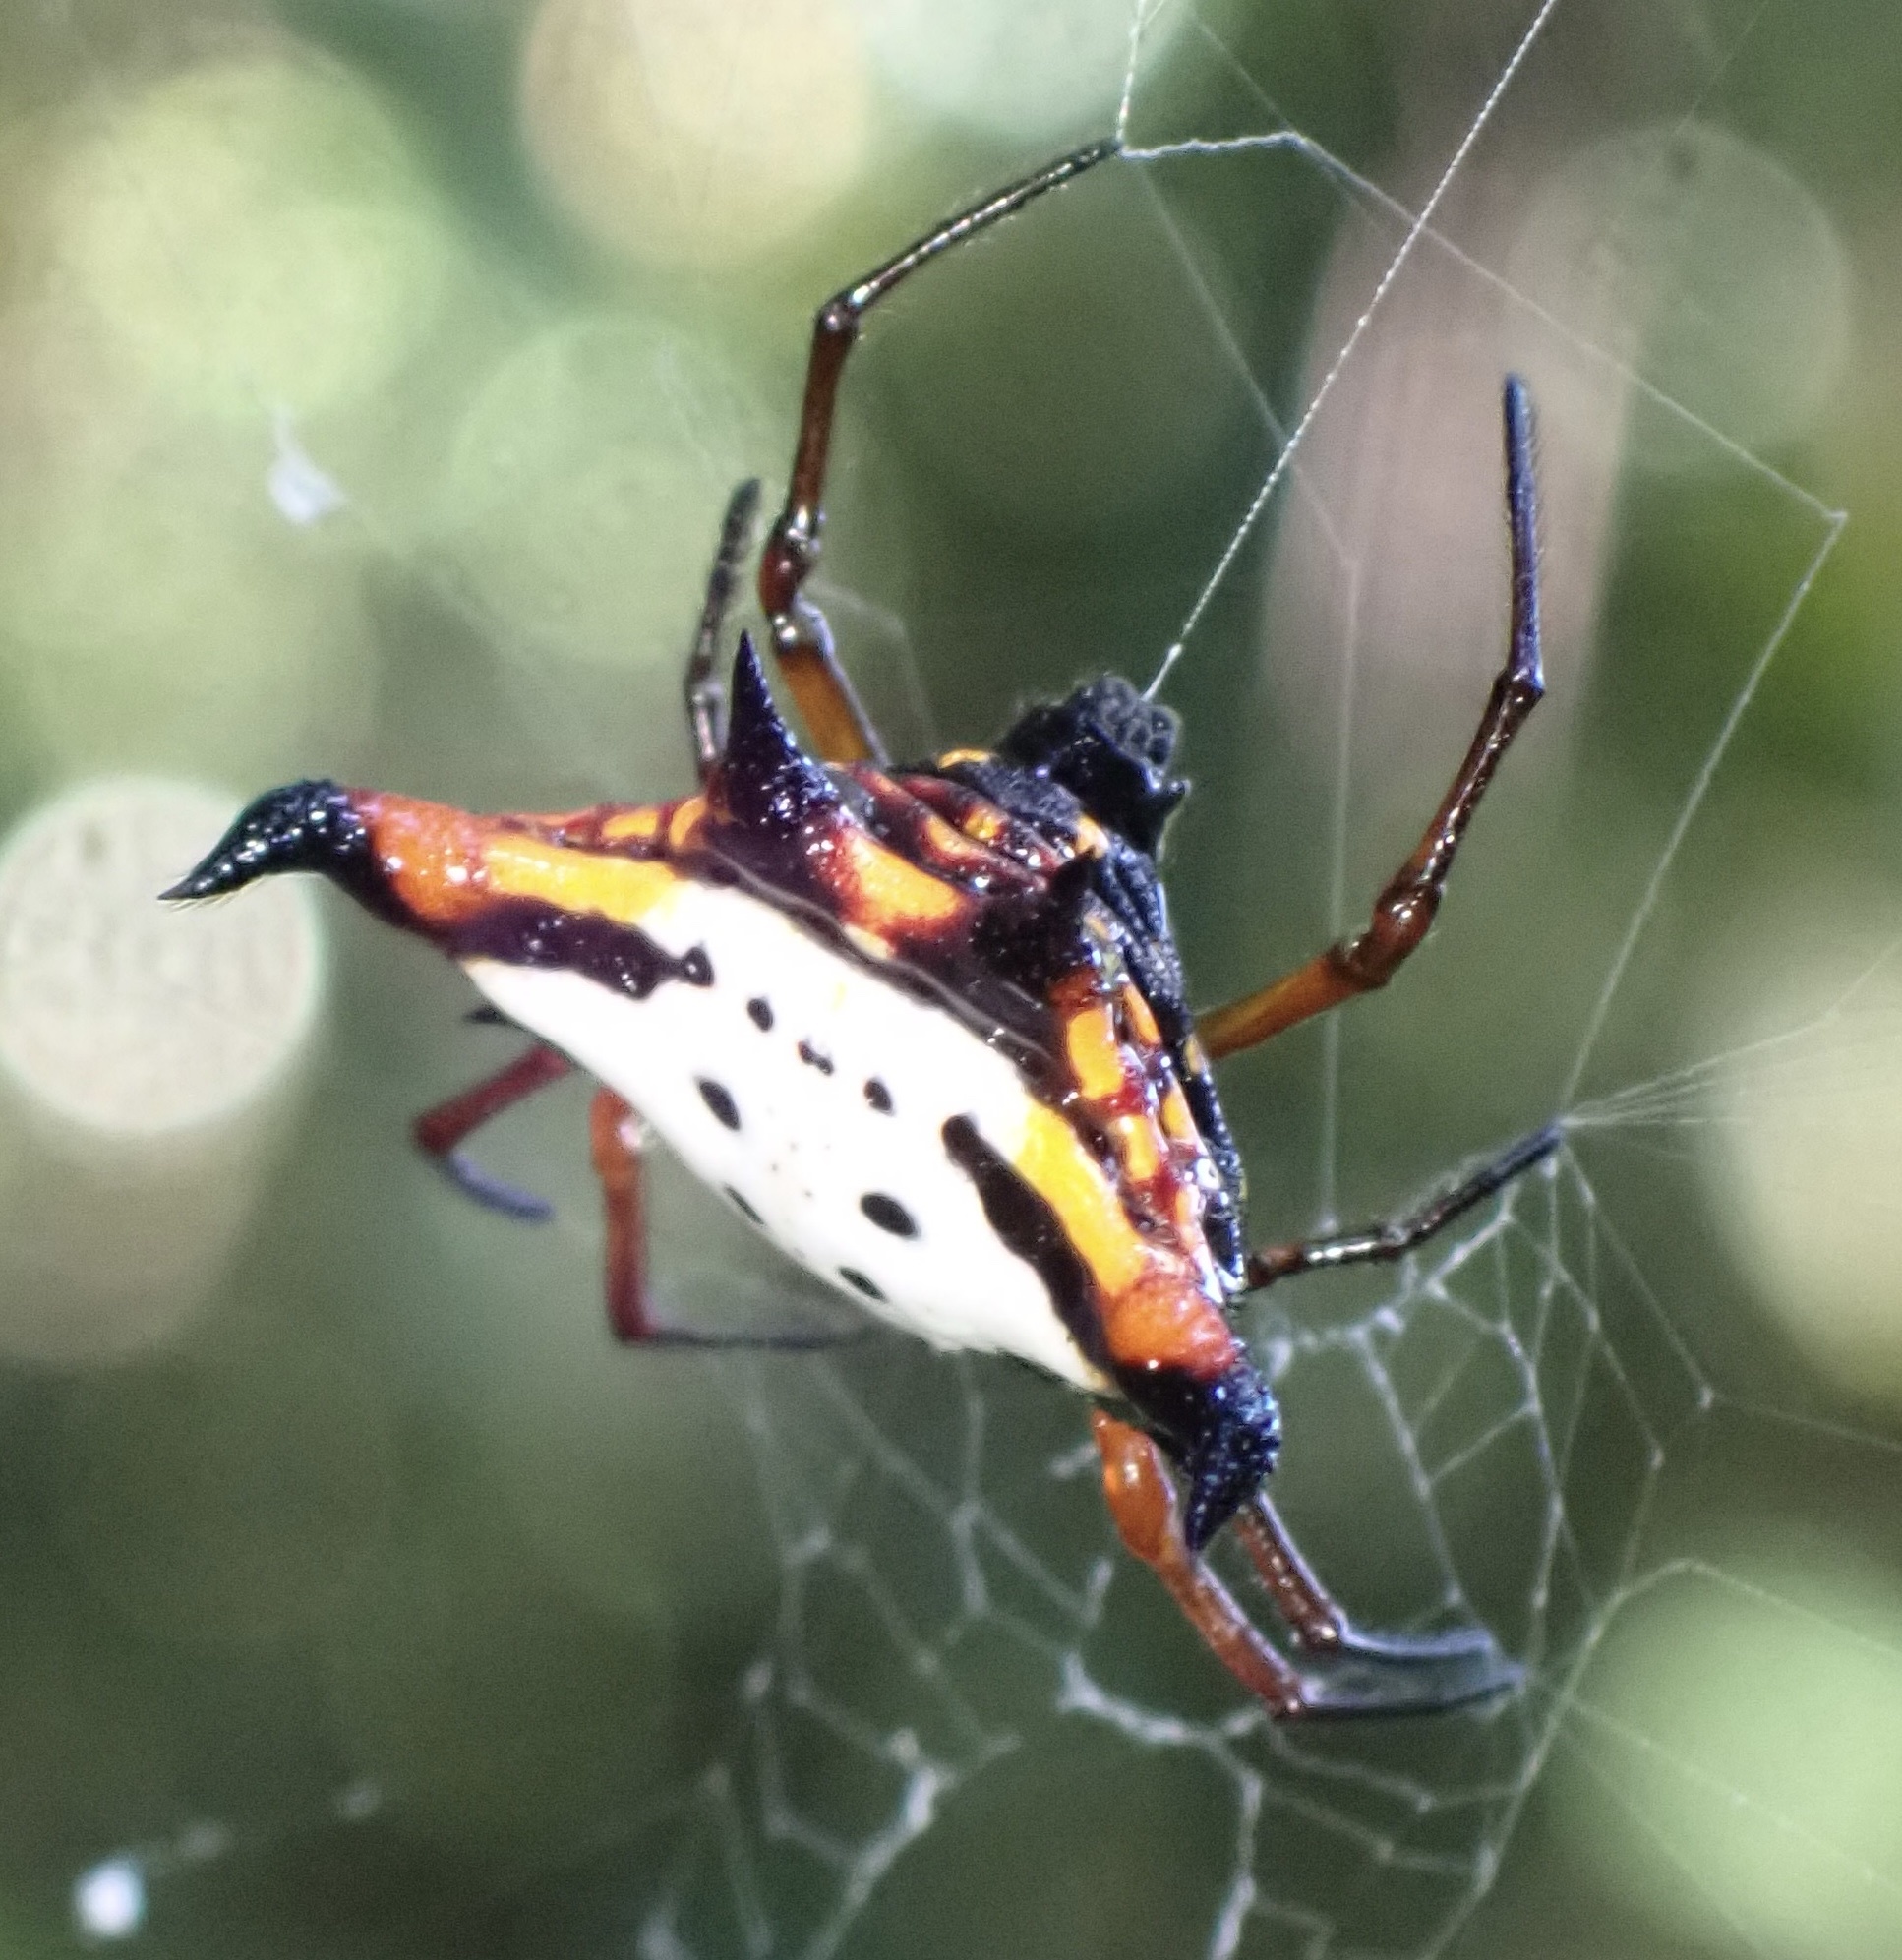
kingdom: Animalia
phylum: Arthropoda
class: Arachnida
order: Araneae
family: Araneidae
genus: Gasteracantha
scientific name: Gasteracantha crucigera
